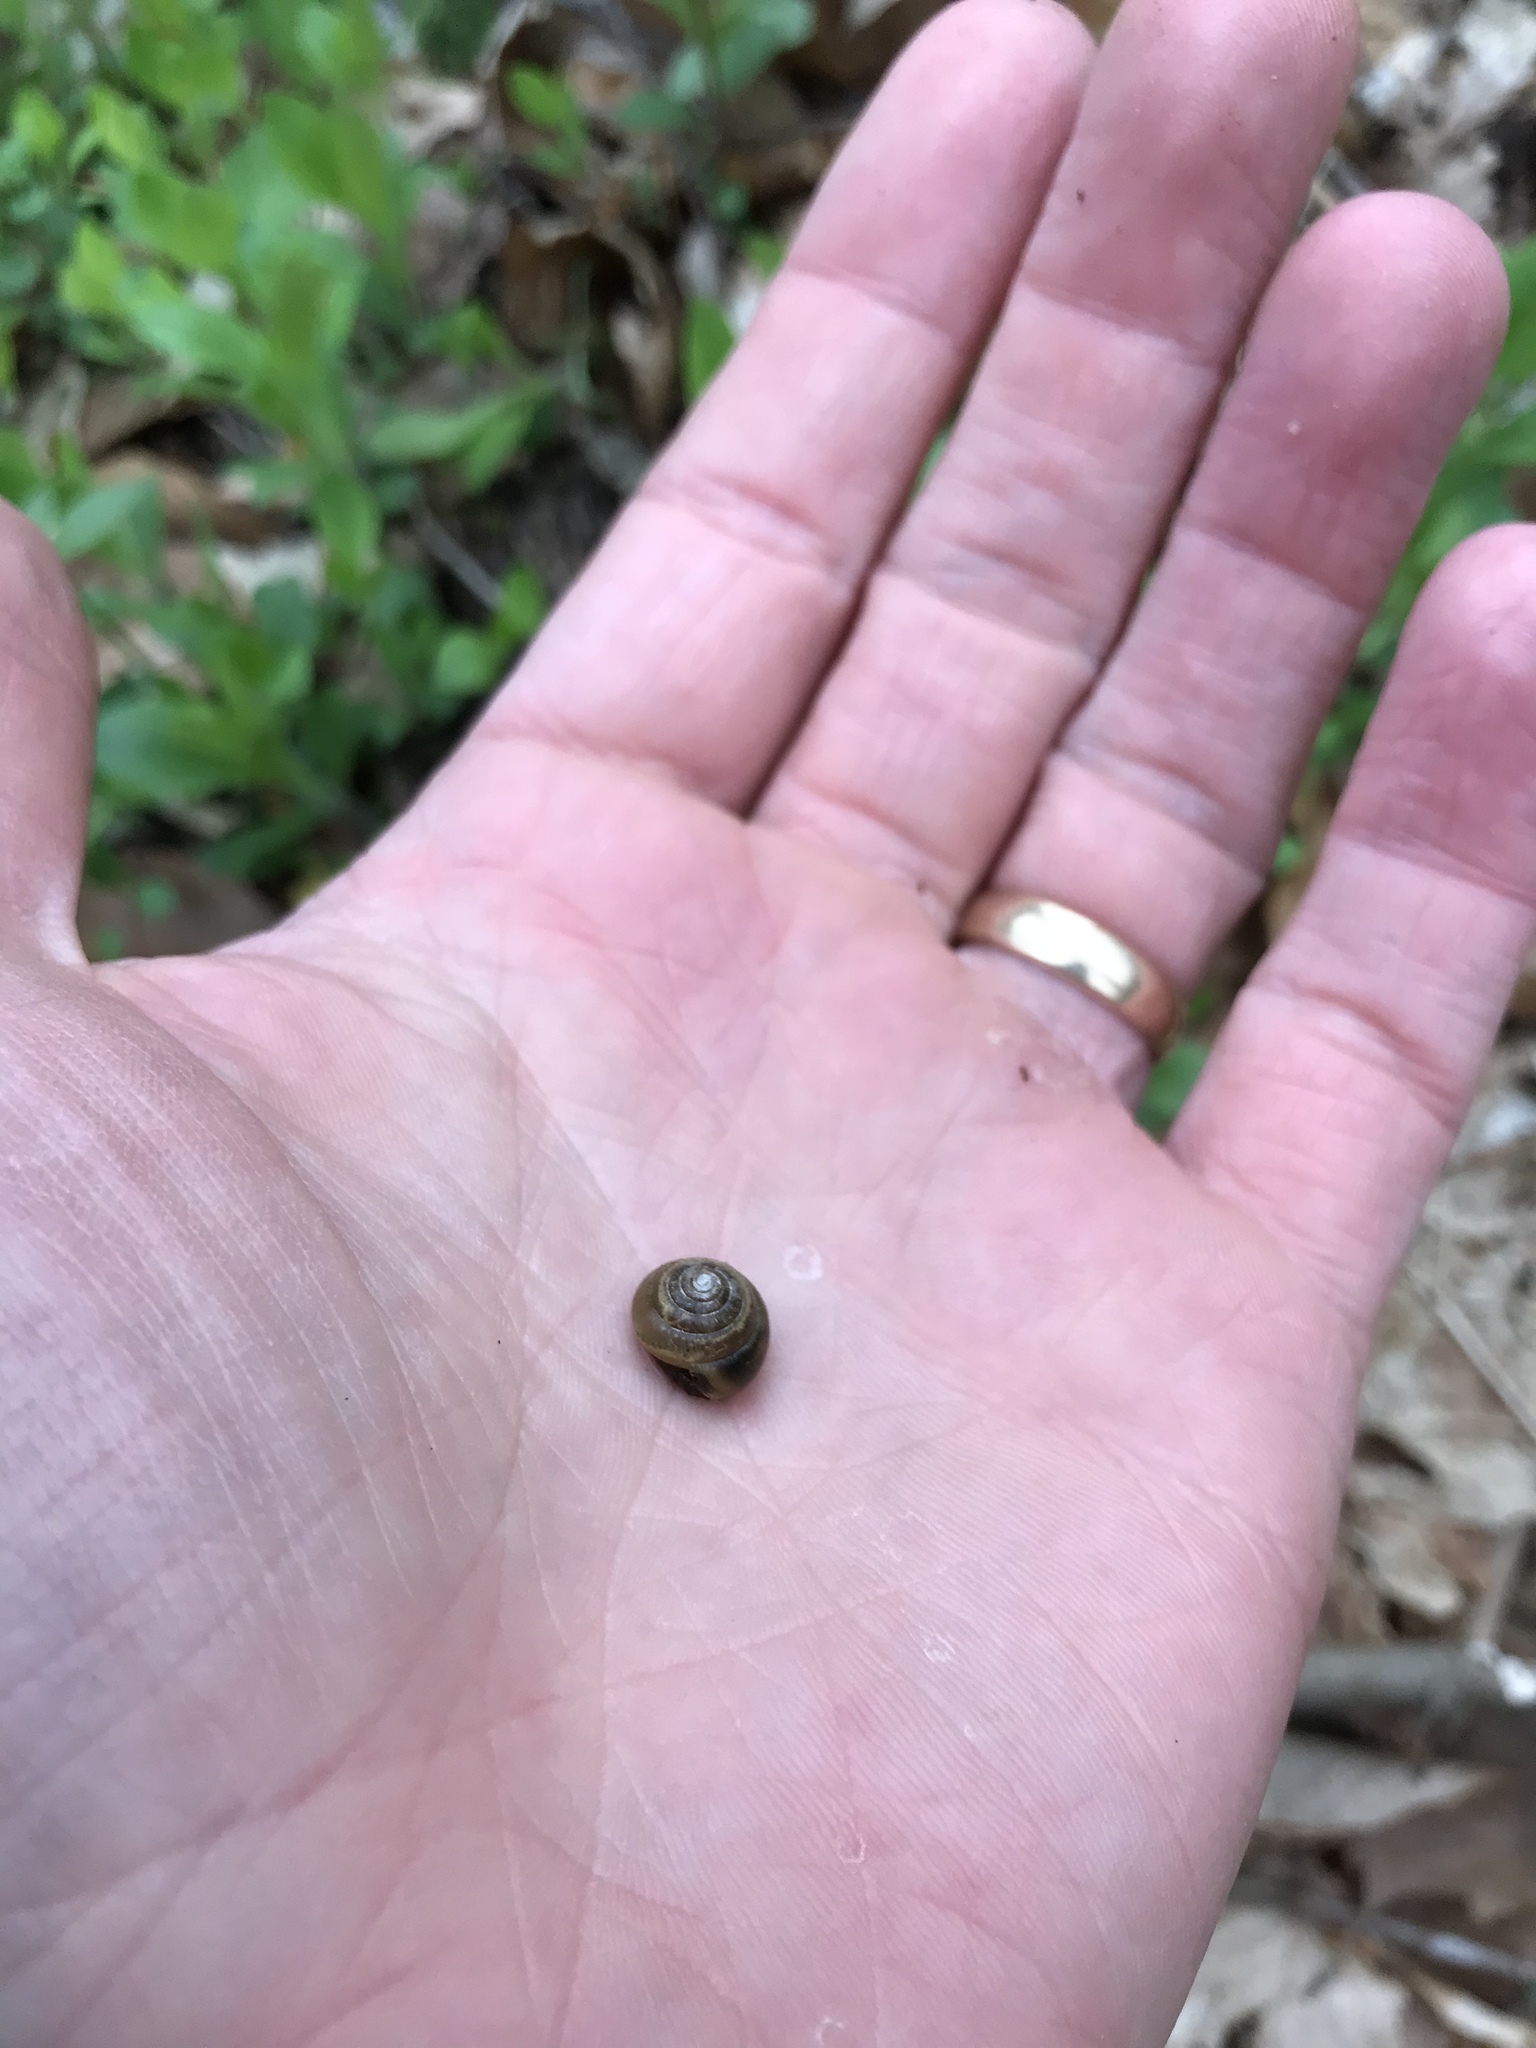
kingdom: Animalia
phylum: Mollusca
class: Gastropoda
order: Stylommatophora
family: Gastrodontidae
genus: Ventridens
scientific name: Ventridens ligera
